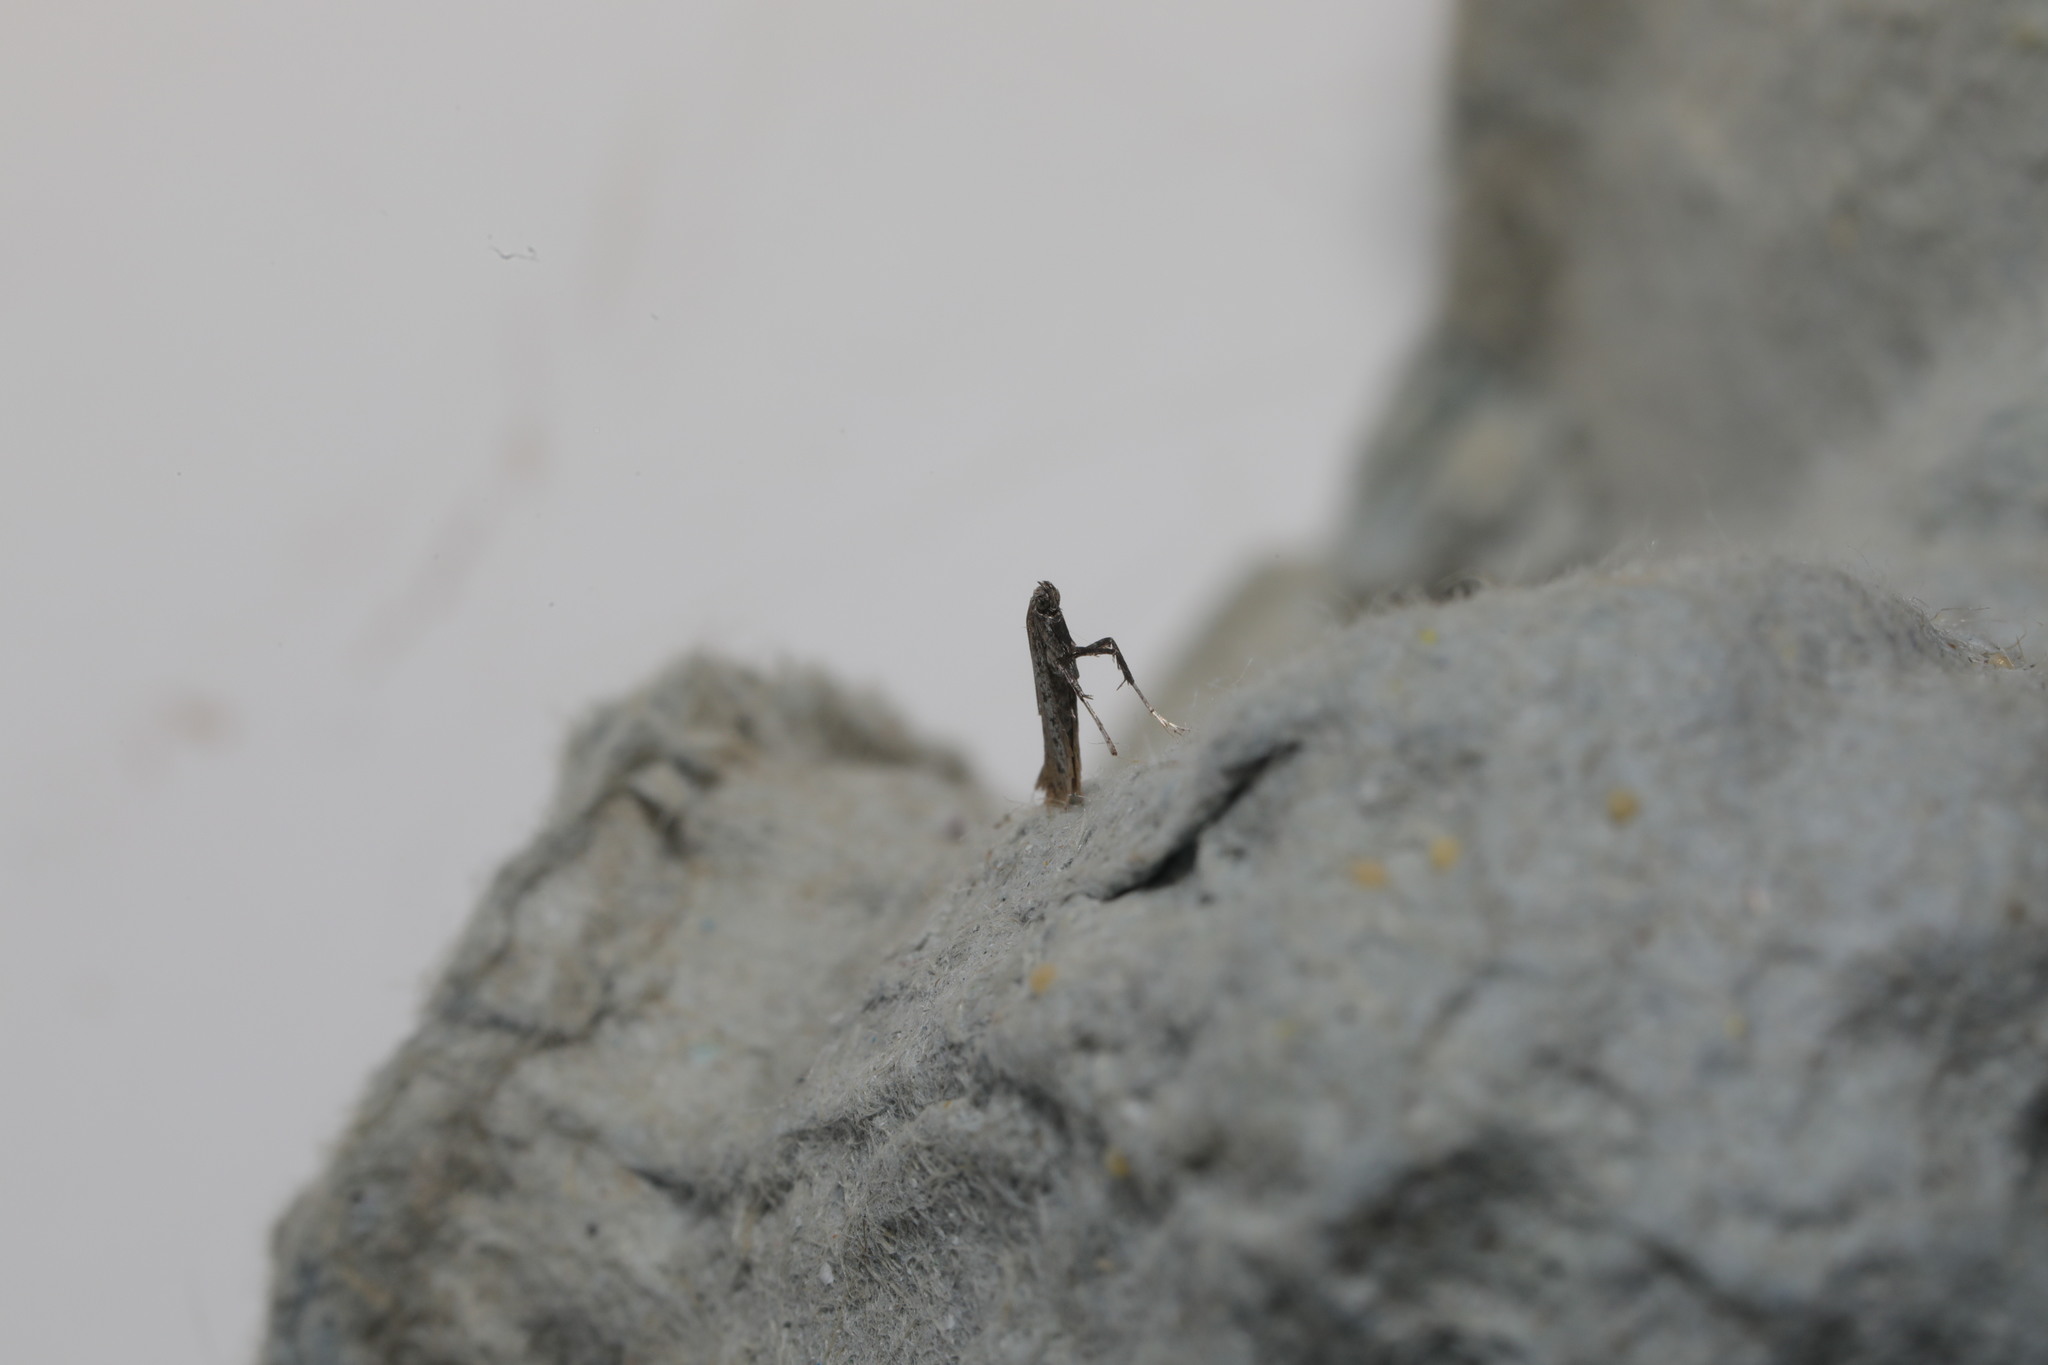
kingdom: Animalia
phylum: Arthropoda
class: Insecta
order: Lepidoptera
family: Gracillariidae
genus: Aspilapteryx
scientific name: Aspilapteryx tringipennella
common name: Ribwort slender
